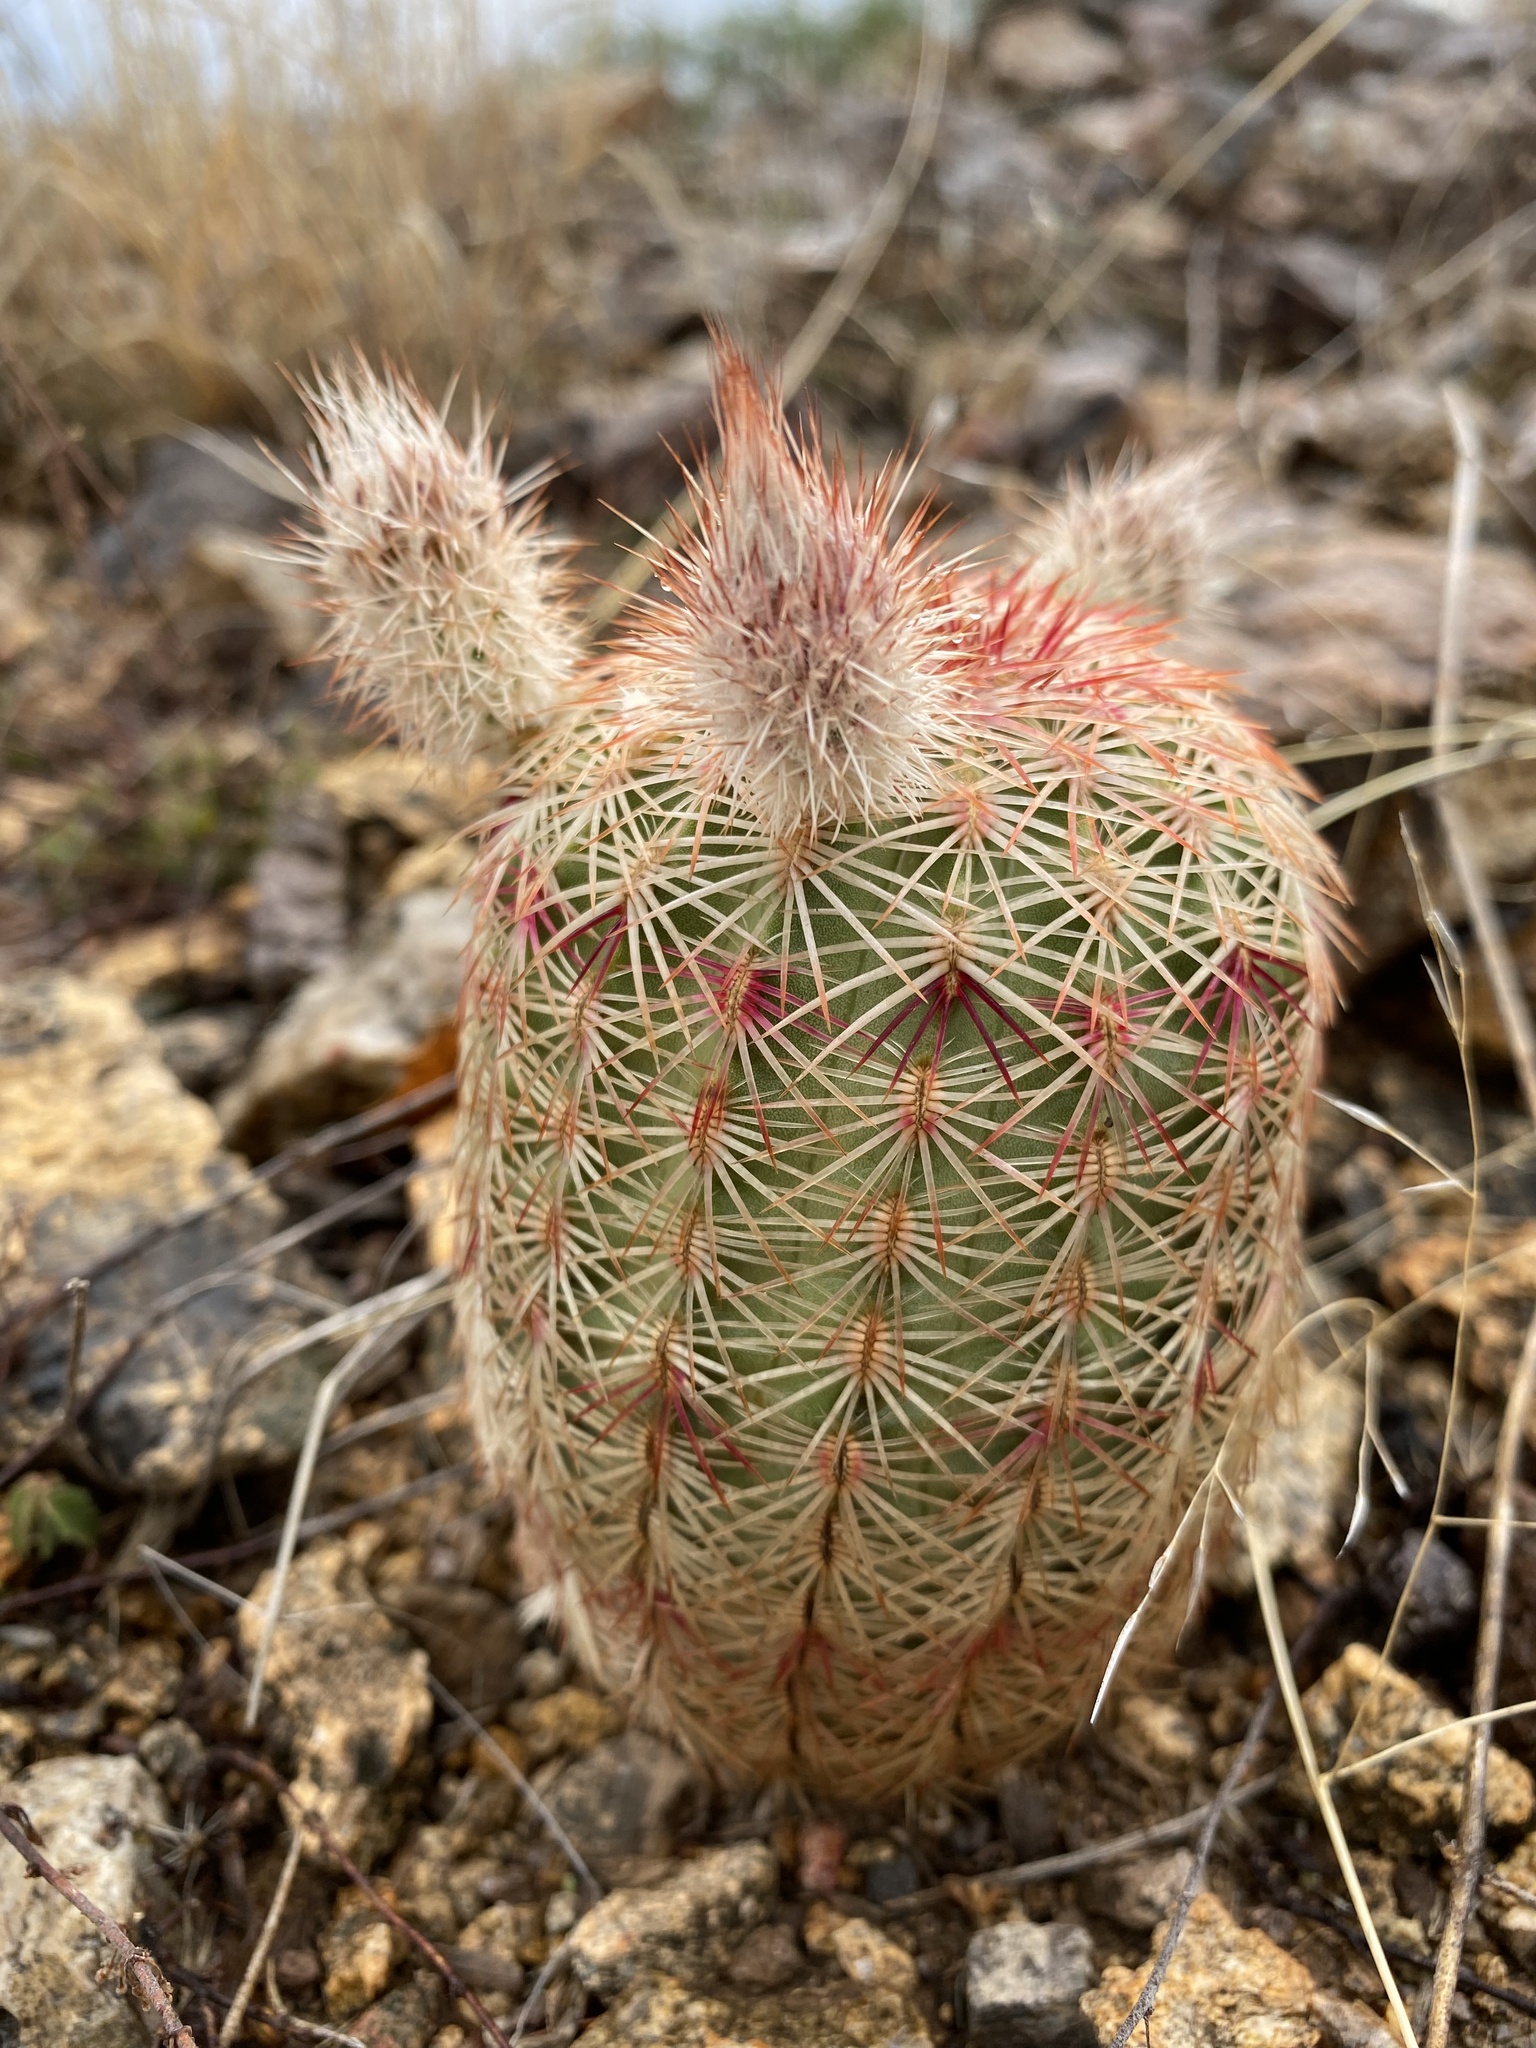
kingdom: Plantae
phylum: Tracheophyta
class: Magnoliopsida
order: Caryophyllales
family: Cactaceae
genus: Echinocereus
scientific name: Echinocereus rigidissimus
